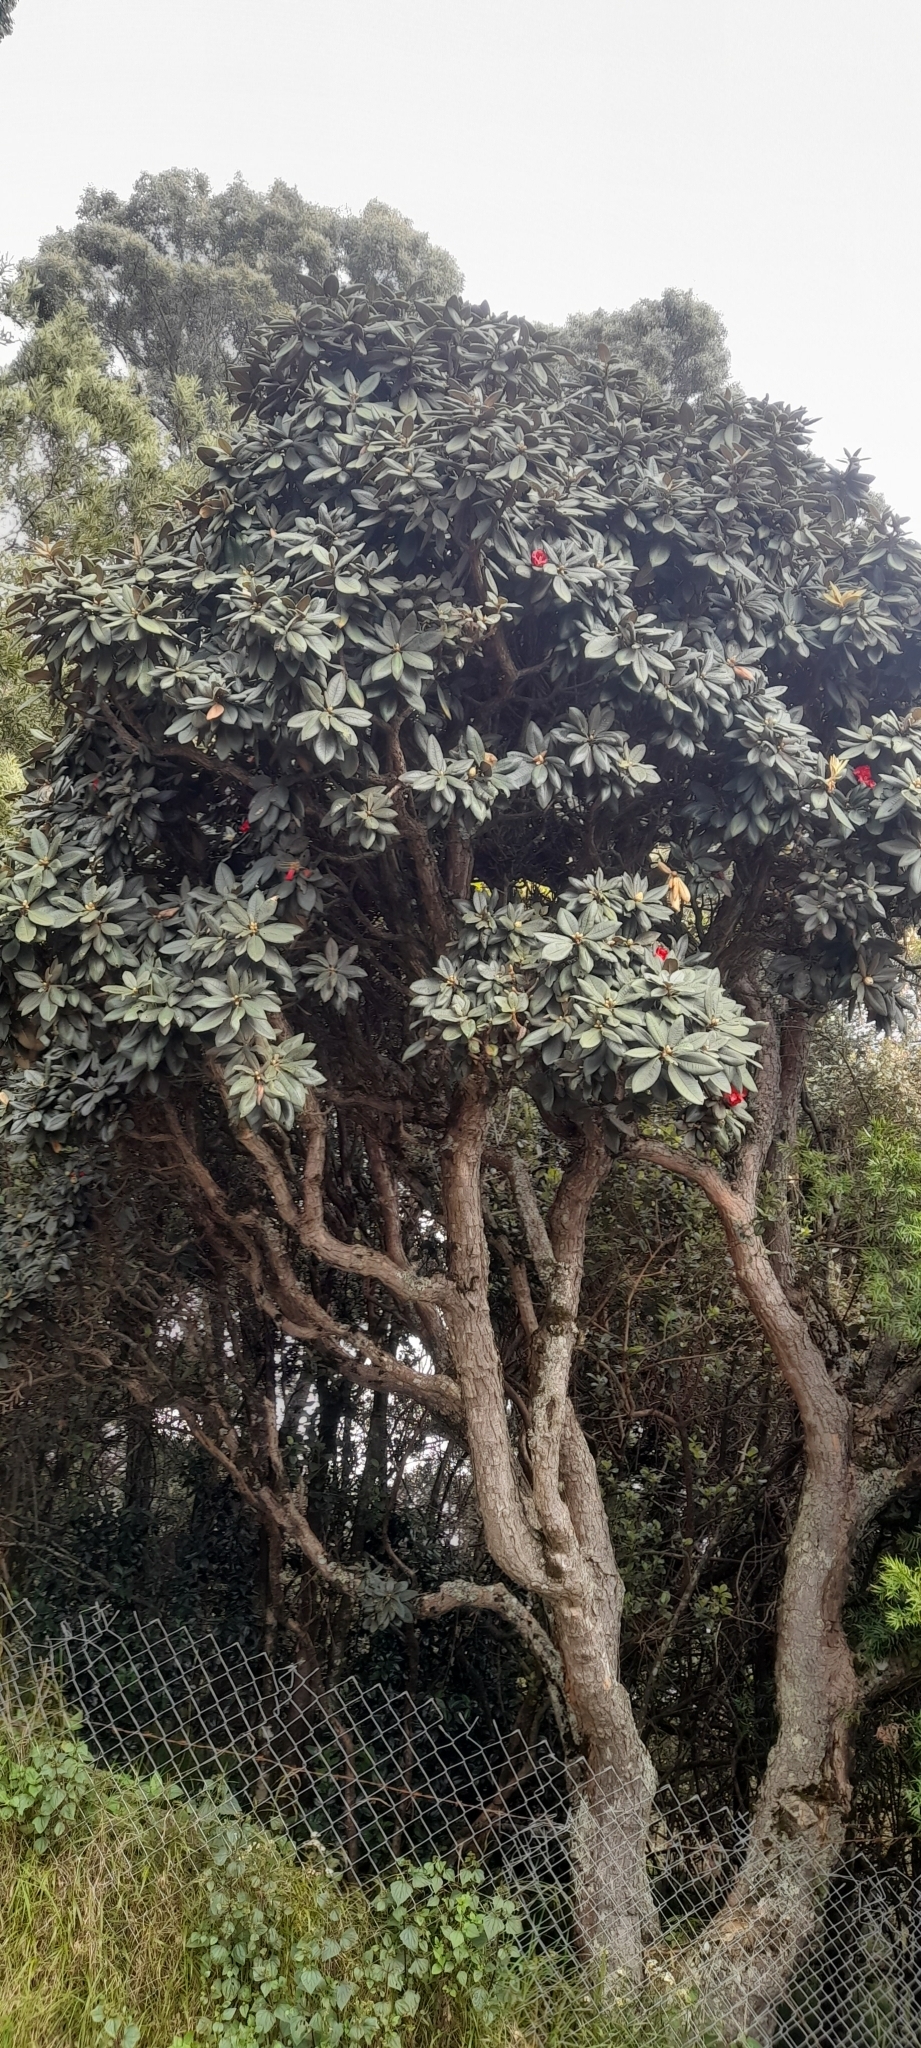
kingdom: Plantae
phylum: Tracheophyta
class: Magnoliopsida
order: Ericales
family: Ericaceae
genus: Rhododendron
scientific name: Rhododendron arboreum
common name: Tree rhododendron
